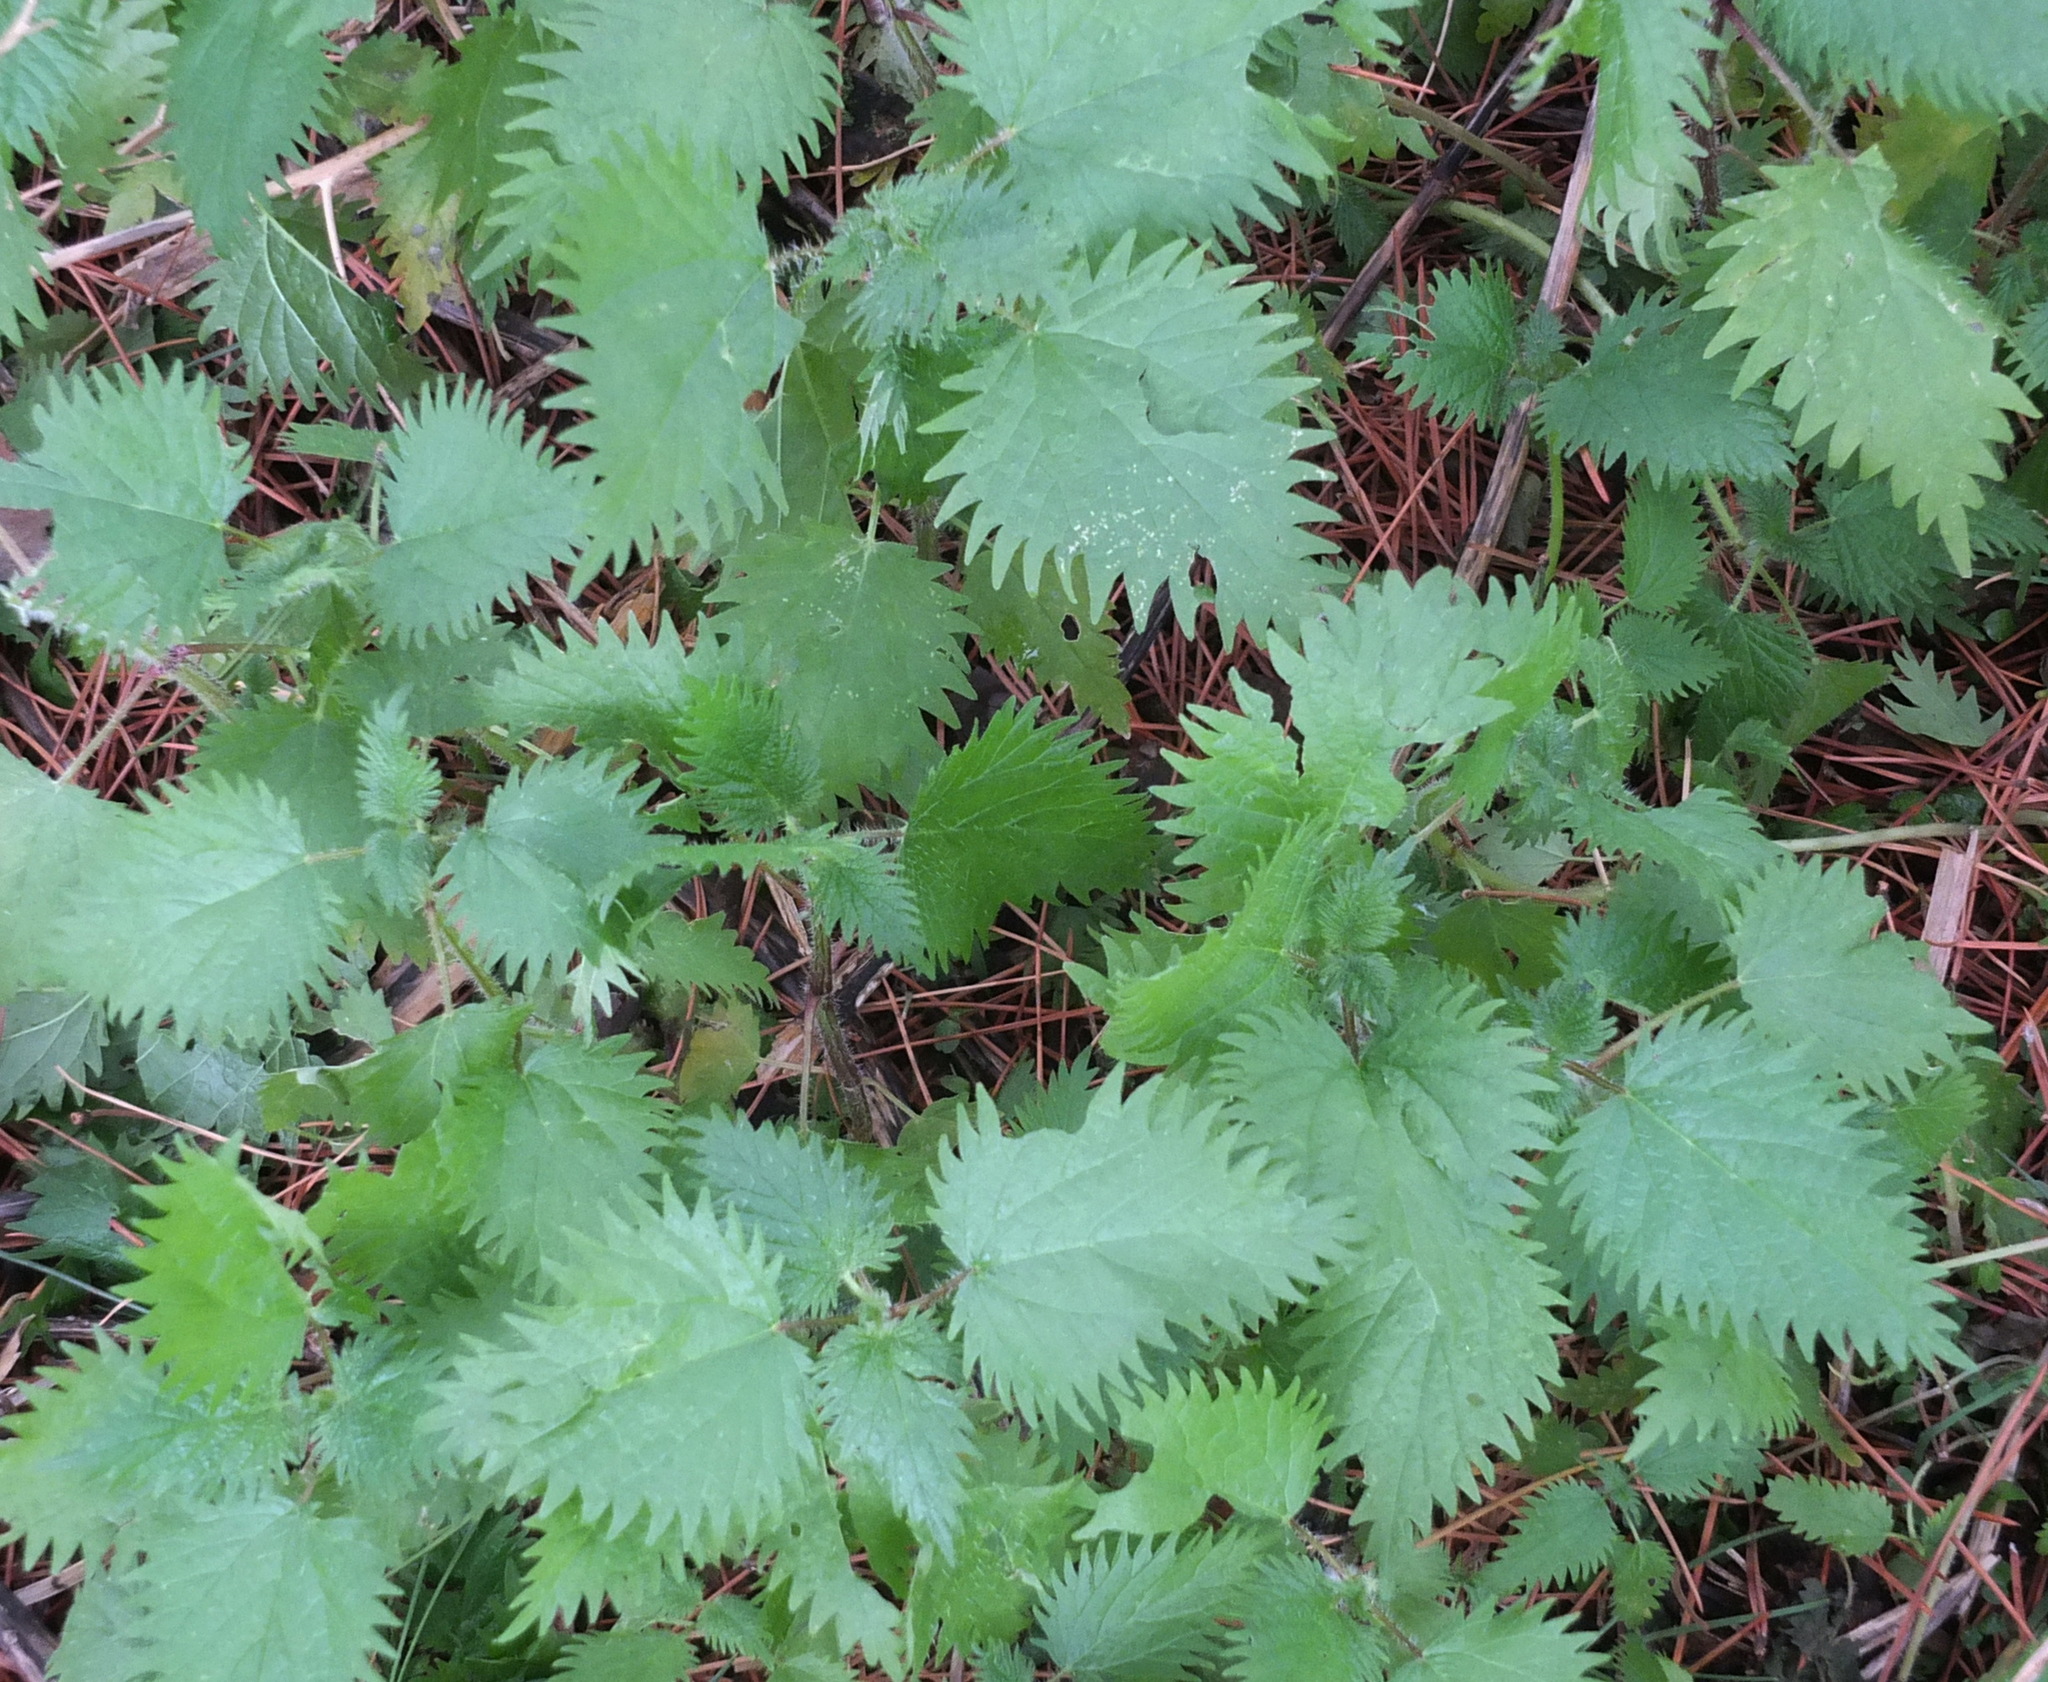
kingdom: Plantae
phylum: Tracheophyta
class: Magnoliopsida
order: Rosales
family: Urticaceae
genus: Urtica
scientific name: Urtica pilulifera
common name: Roman nettle
